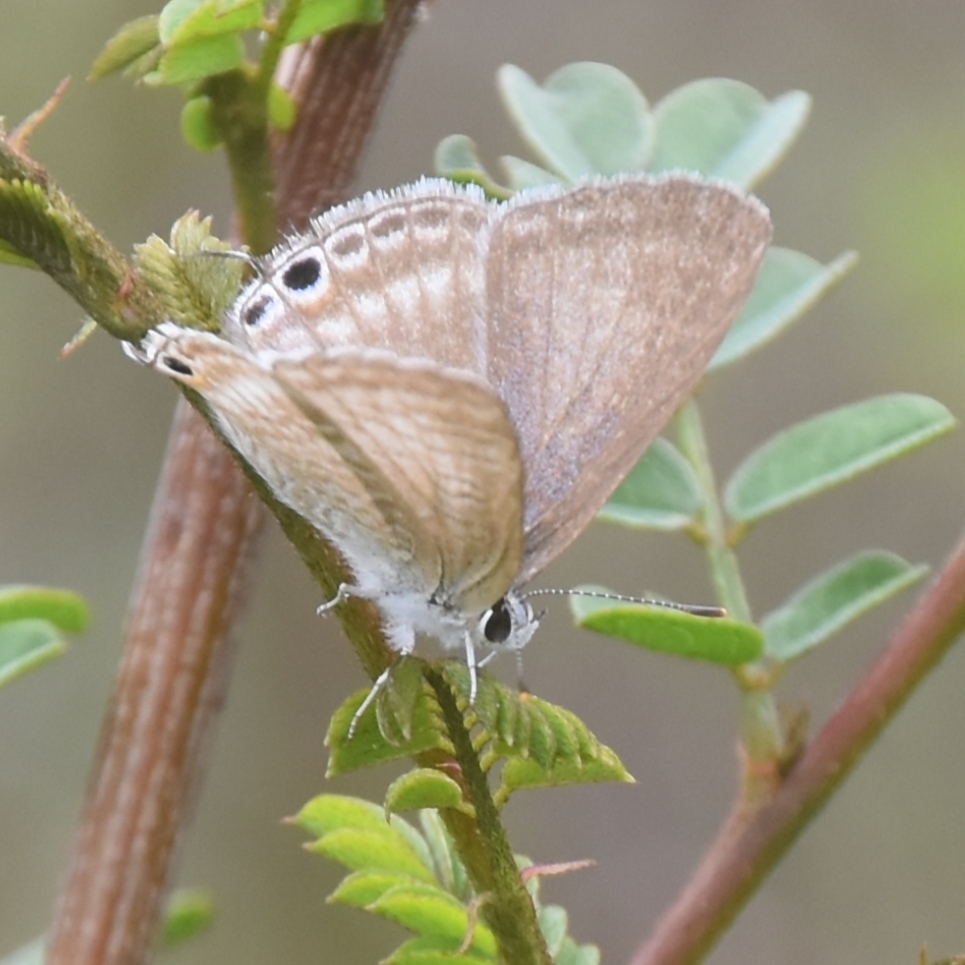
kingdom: Animalia
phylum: Arthropoda
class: Insecta
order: Lepidoptera
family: Lycaenidae
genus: Lampides
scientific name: Lampides boeticus
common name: Long-tailed blue
